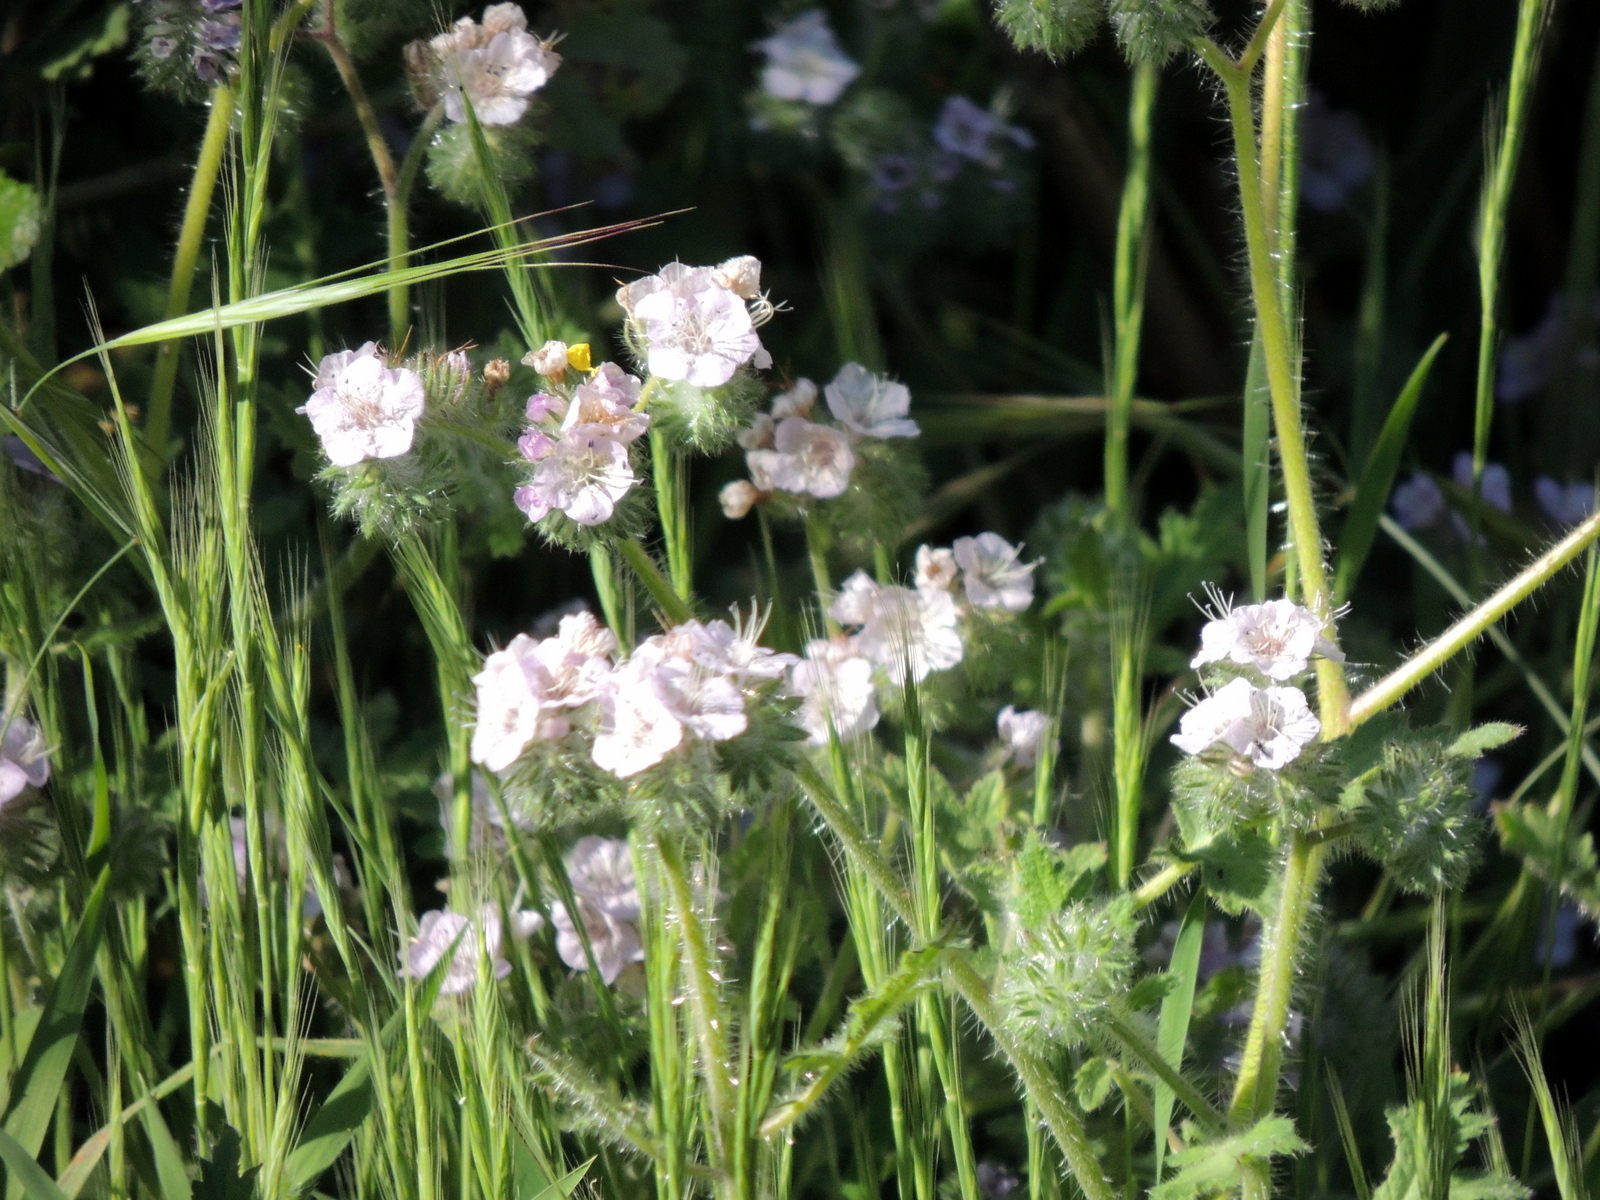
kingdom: Plantae
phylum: Tracheophyta
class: Magnoliopsida
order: Boraginales
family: Hydrophyllaceae
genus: Phacelia
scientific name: Phacelia cicutaria
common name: Caterpillar phacelia
